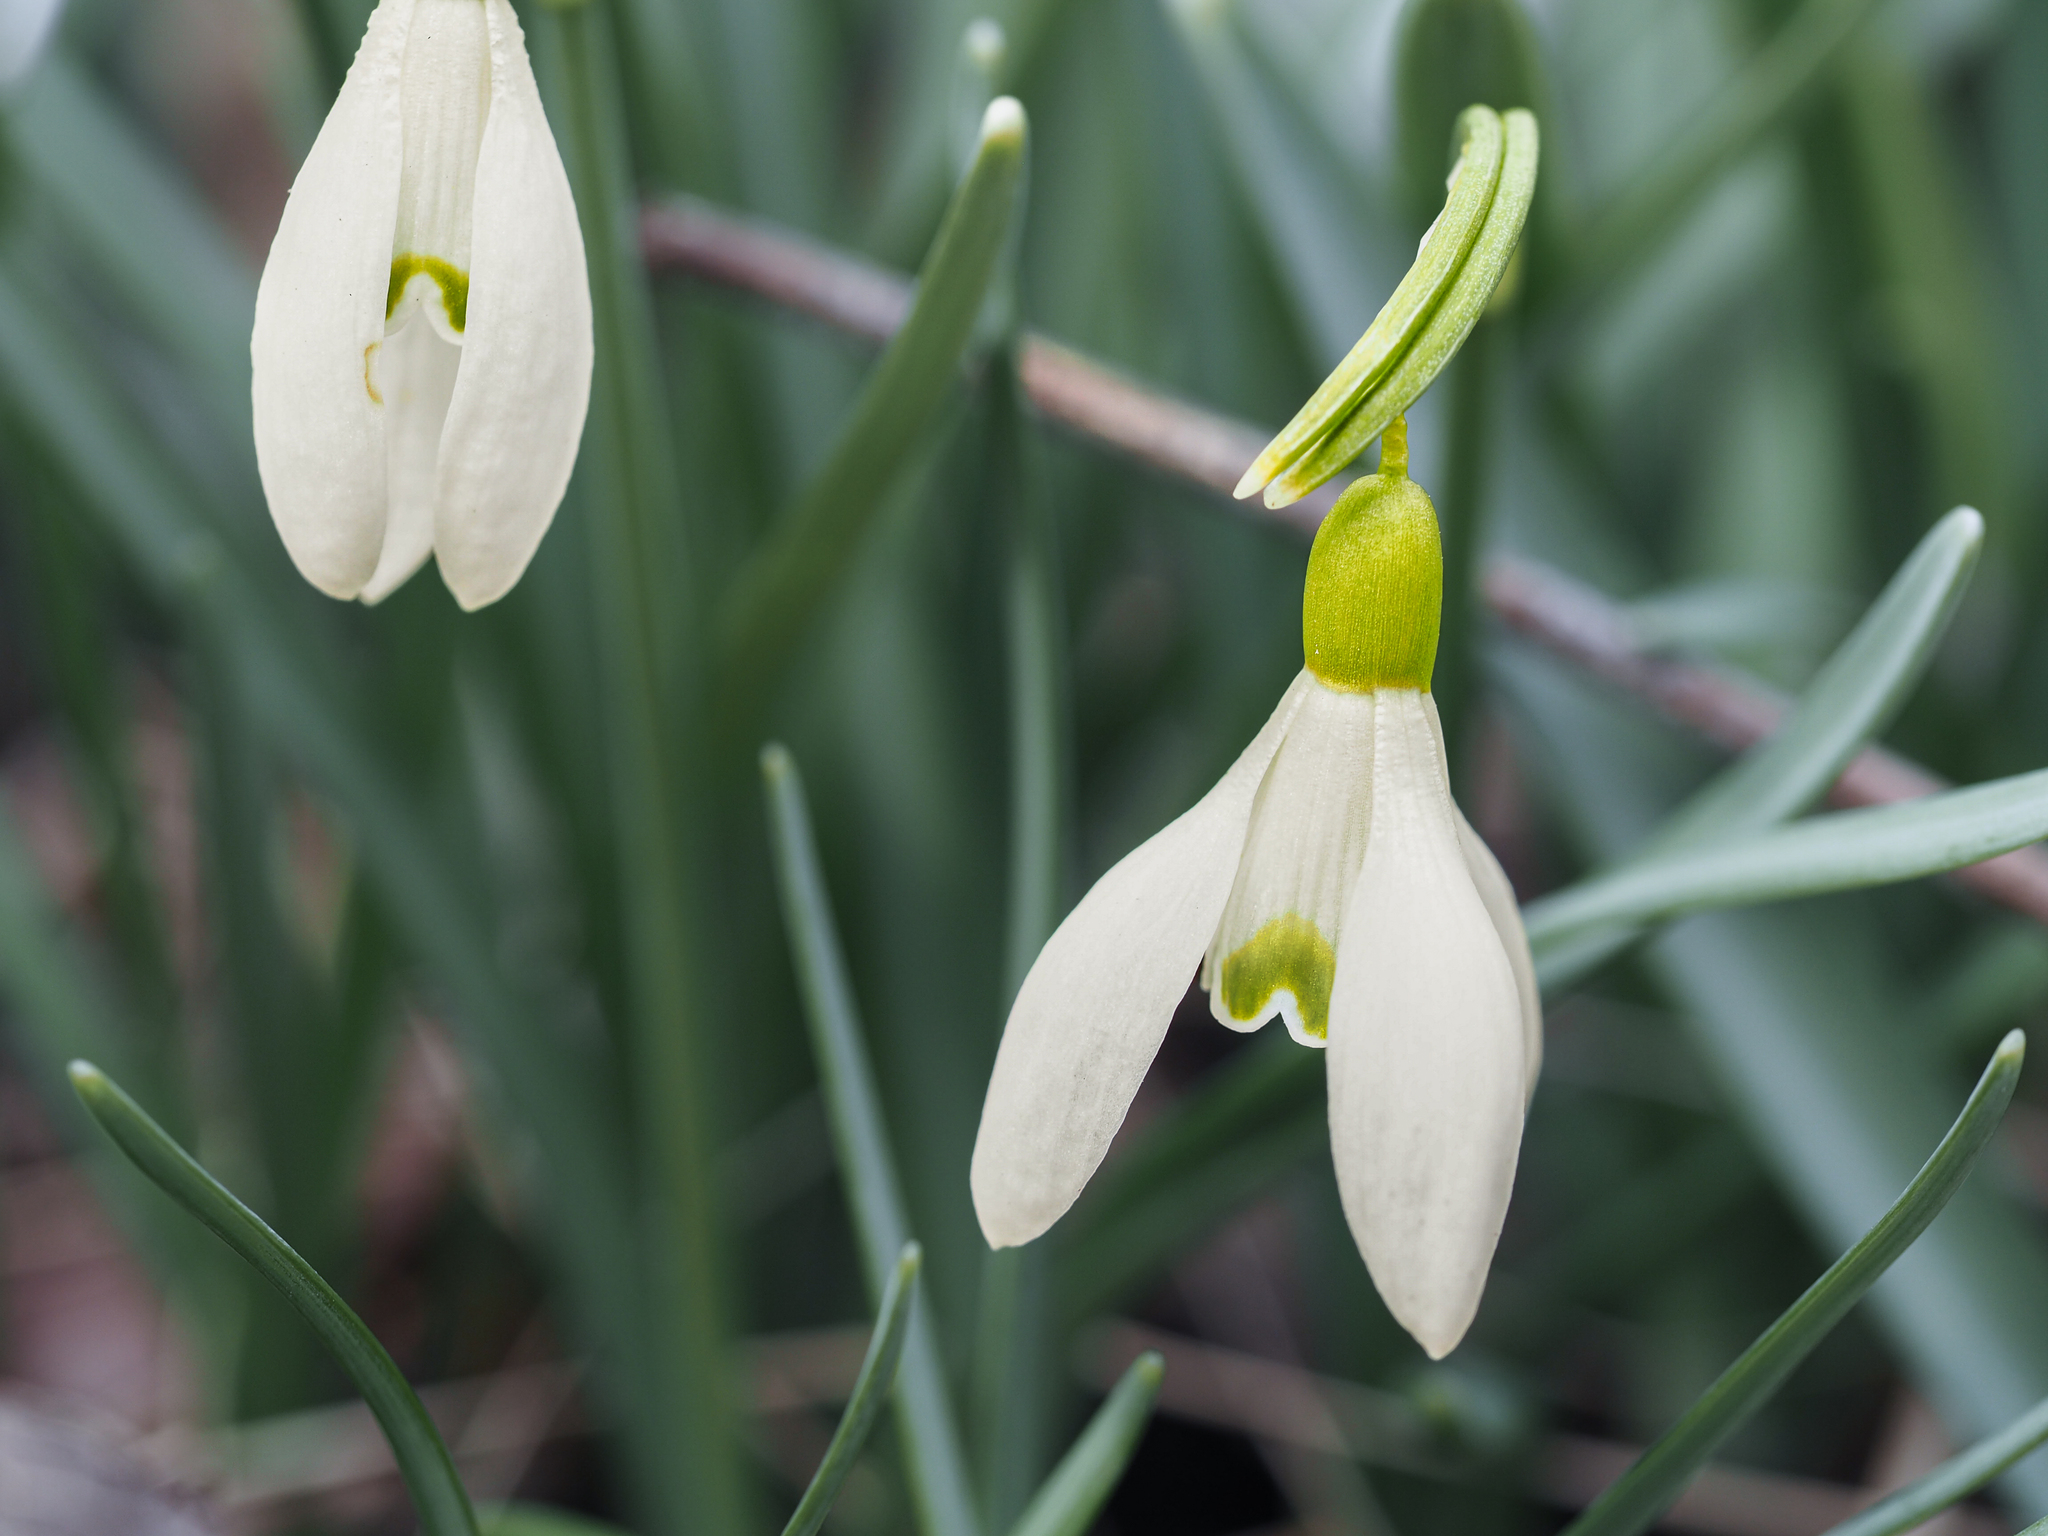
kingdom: Plantae
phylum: Tracheophyta
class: Liliopsida
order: Asparagales
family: Amaryllidaceae
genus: Galanthus
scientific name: Galanthus nivalis
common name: Snowdrop
